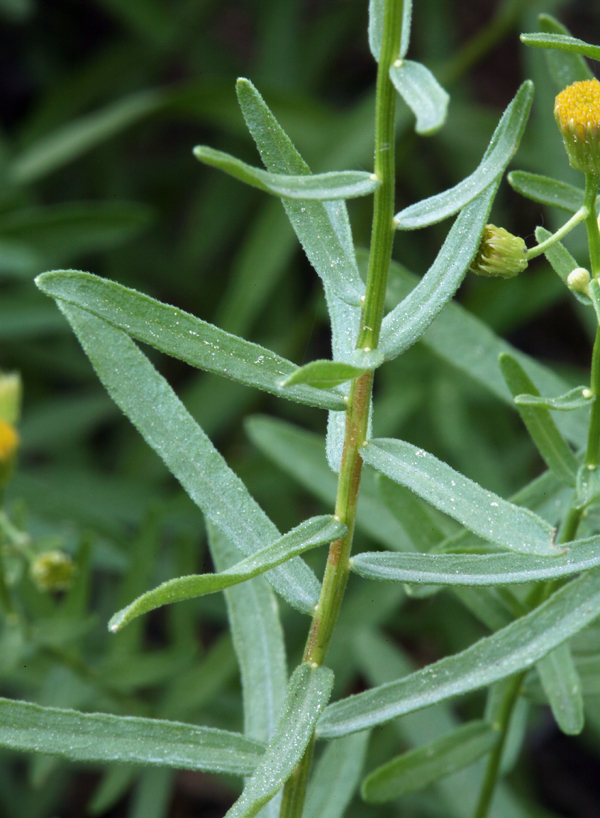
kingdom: Plantae
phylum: Tracheophyta
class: Magnoliopsida
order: Asterales
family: Asteraceae
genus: Erigeron
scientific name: Erigeron inornatus
